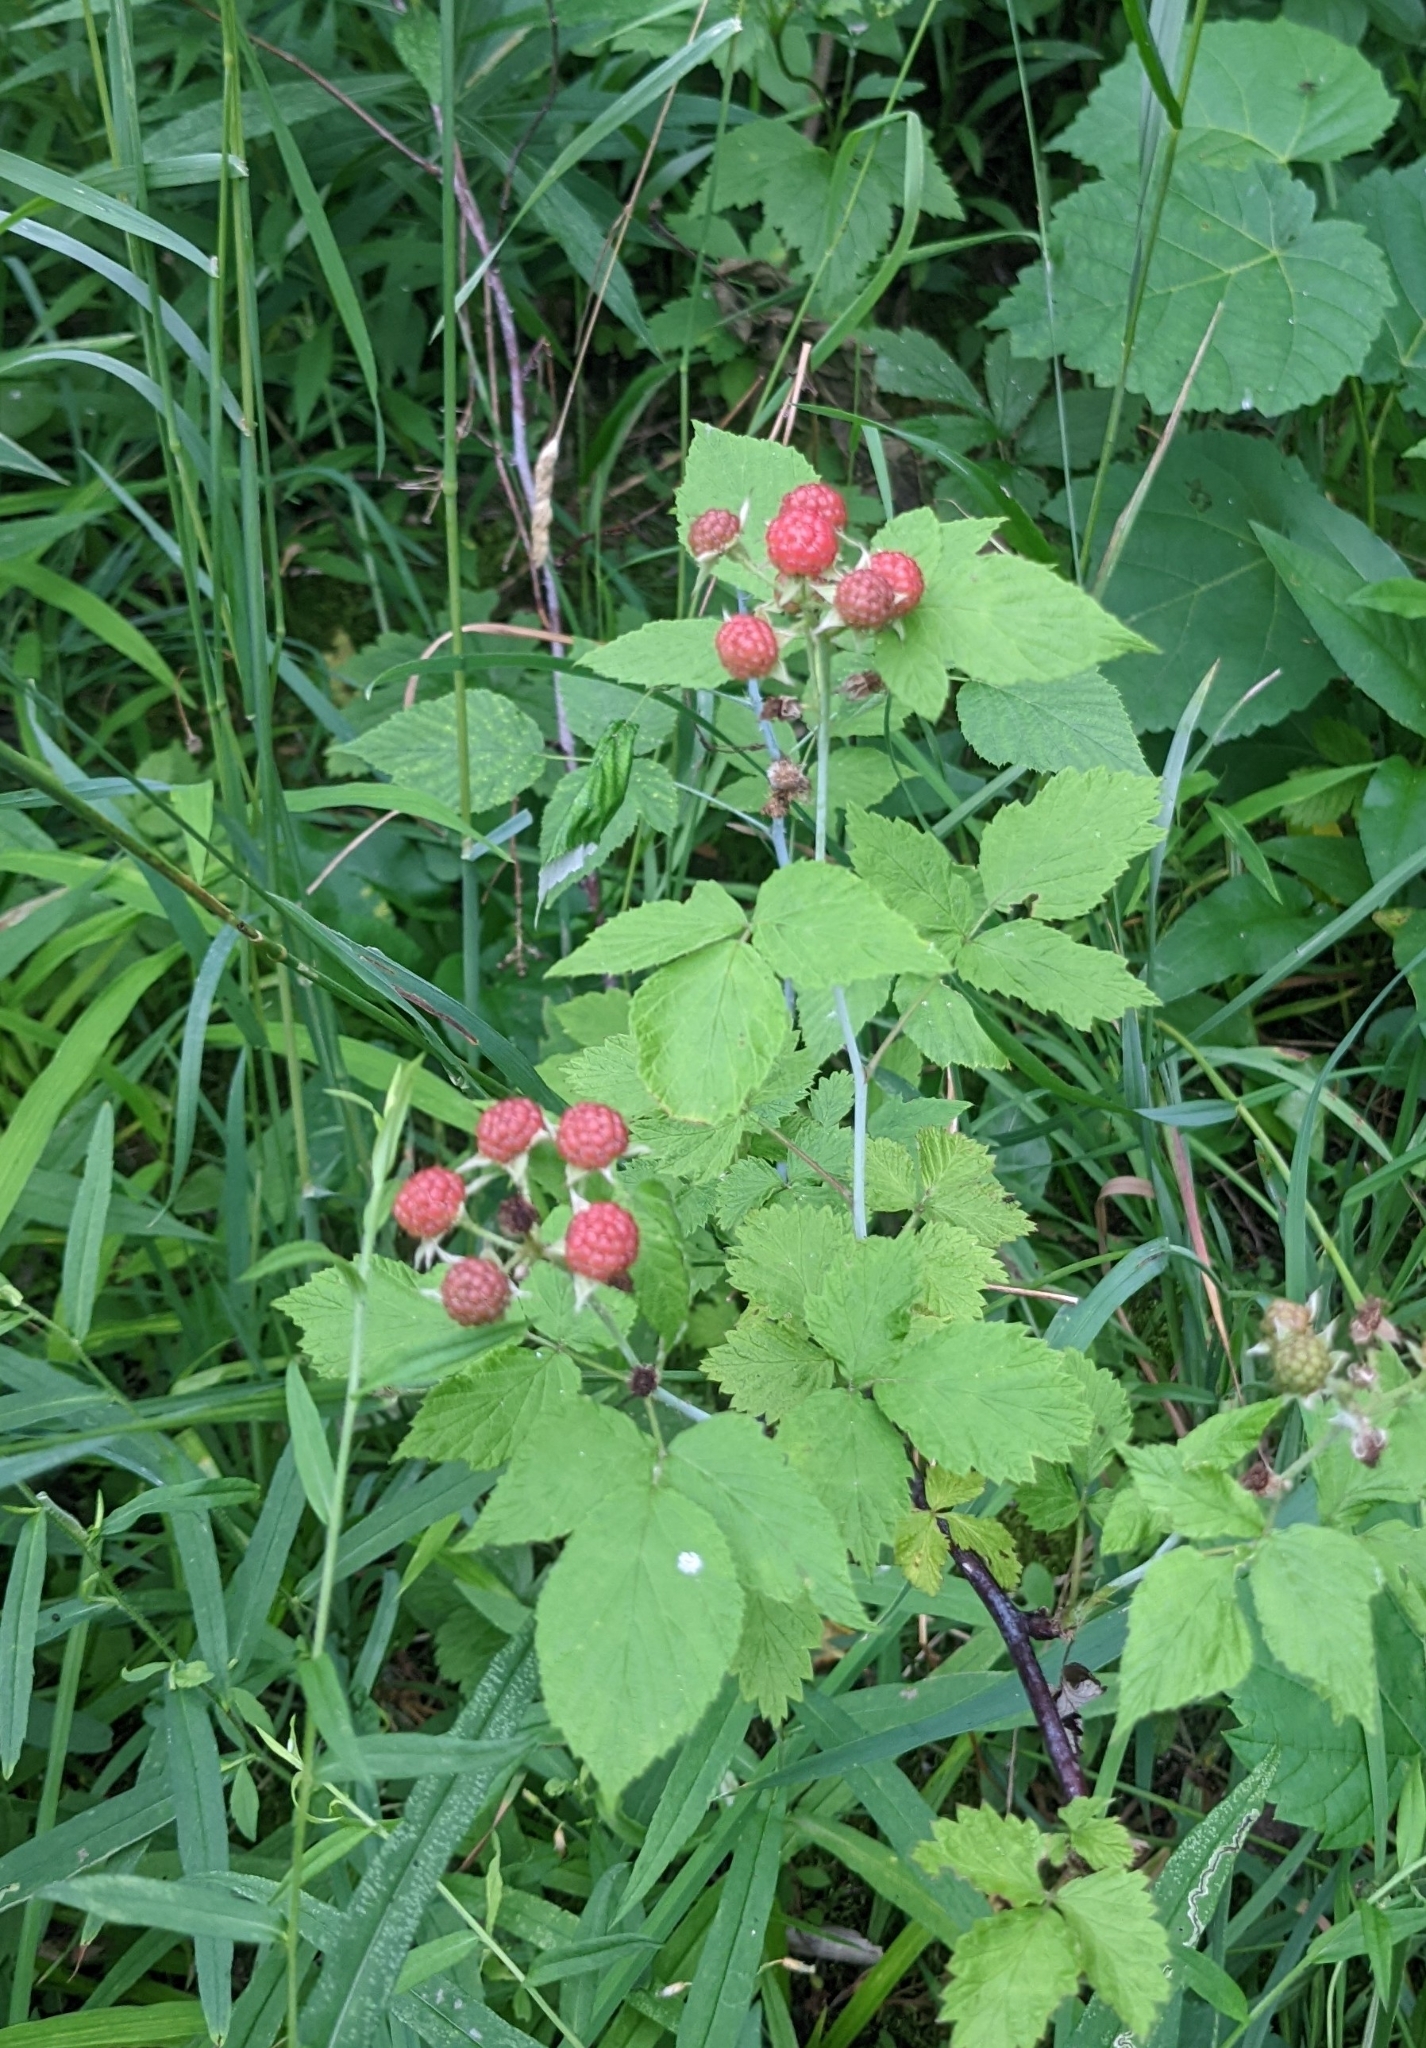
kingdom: Plantae
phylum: Tracheophyta
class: Magnoliopsida
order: Rosales
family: Rosaceae
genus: Rubus
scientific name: Rubus occidentalis
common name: Black raspberry
